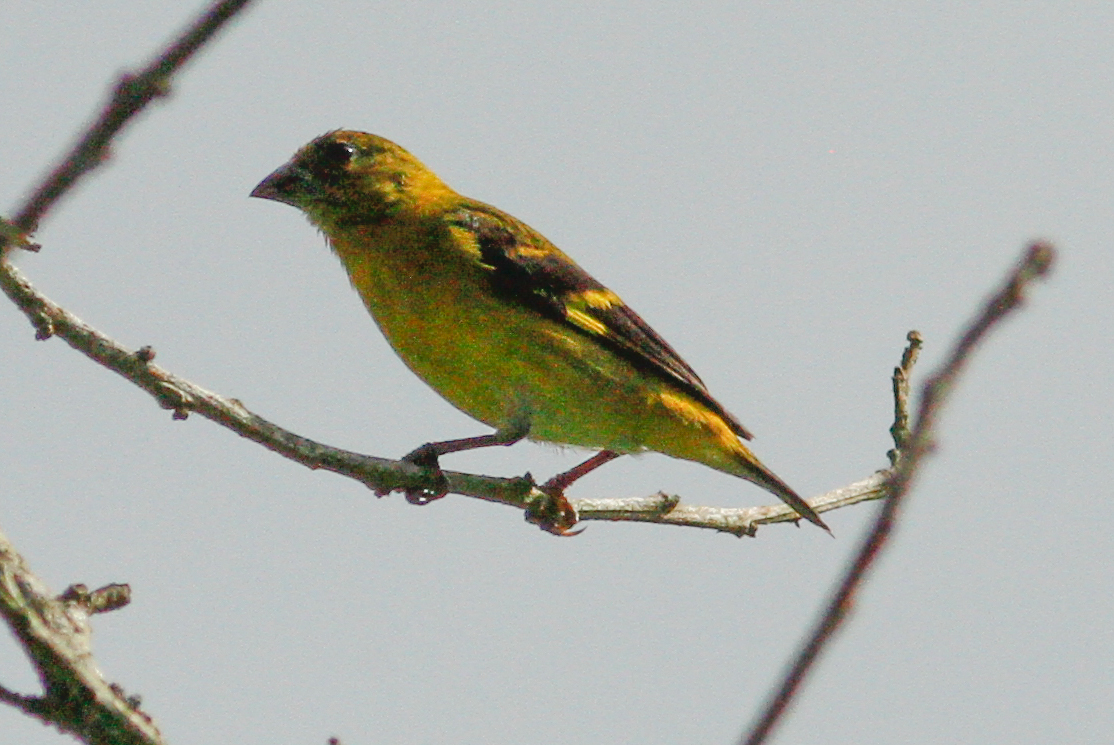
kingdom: Animalia
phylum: Chordata
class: Aves
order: Passeriformes
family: Fringillidae
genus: Spinus
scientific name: Spinus siemiradzkii
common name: Saffron siskin
